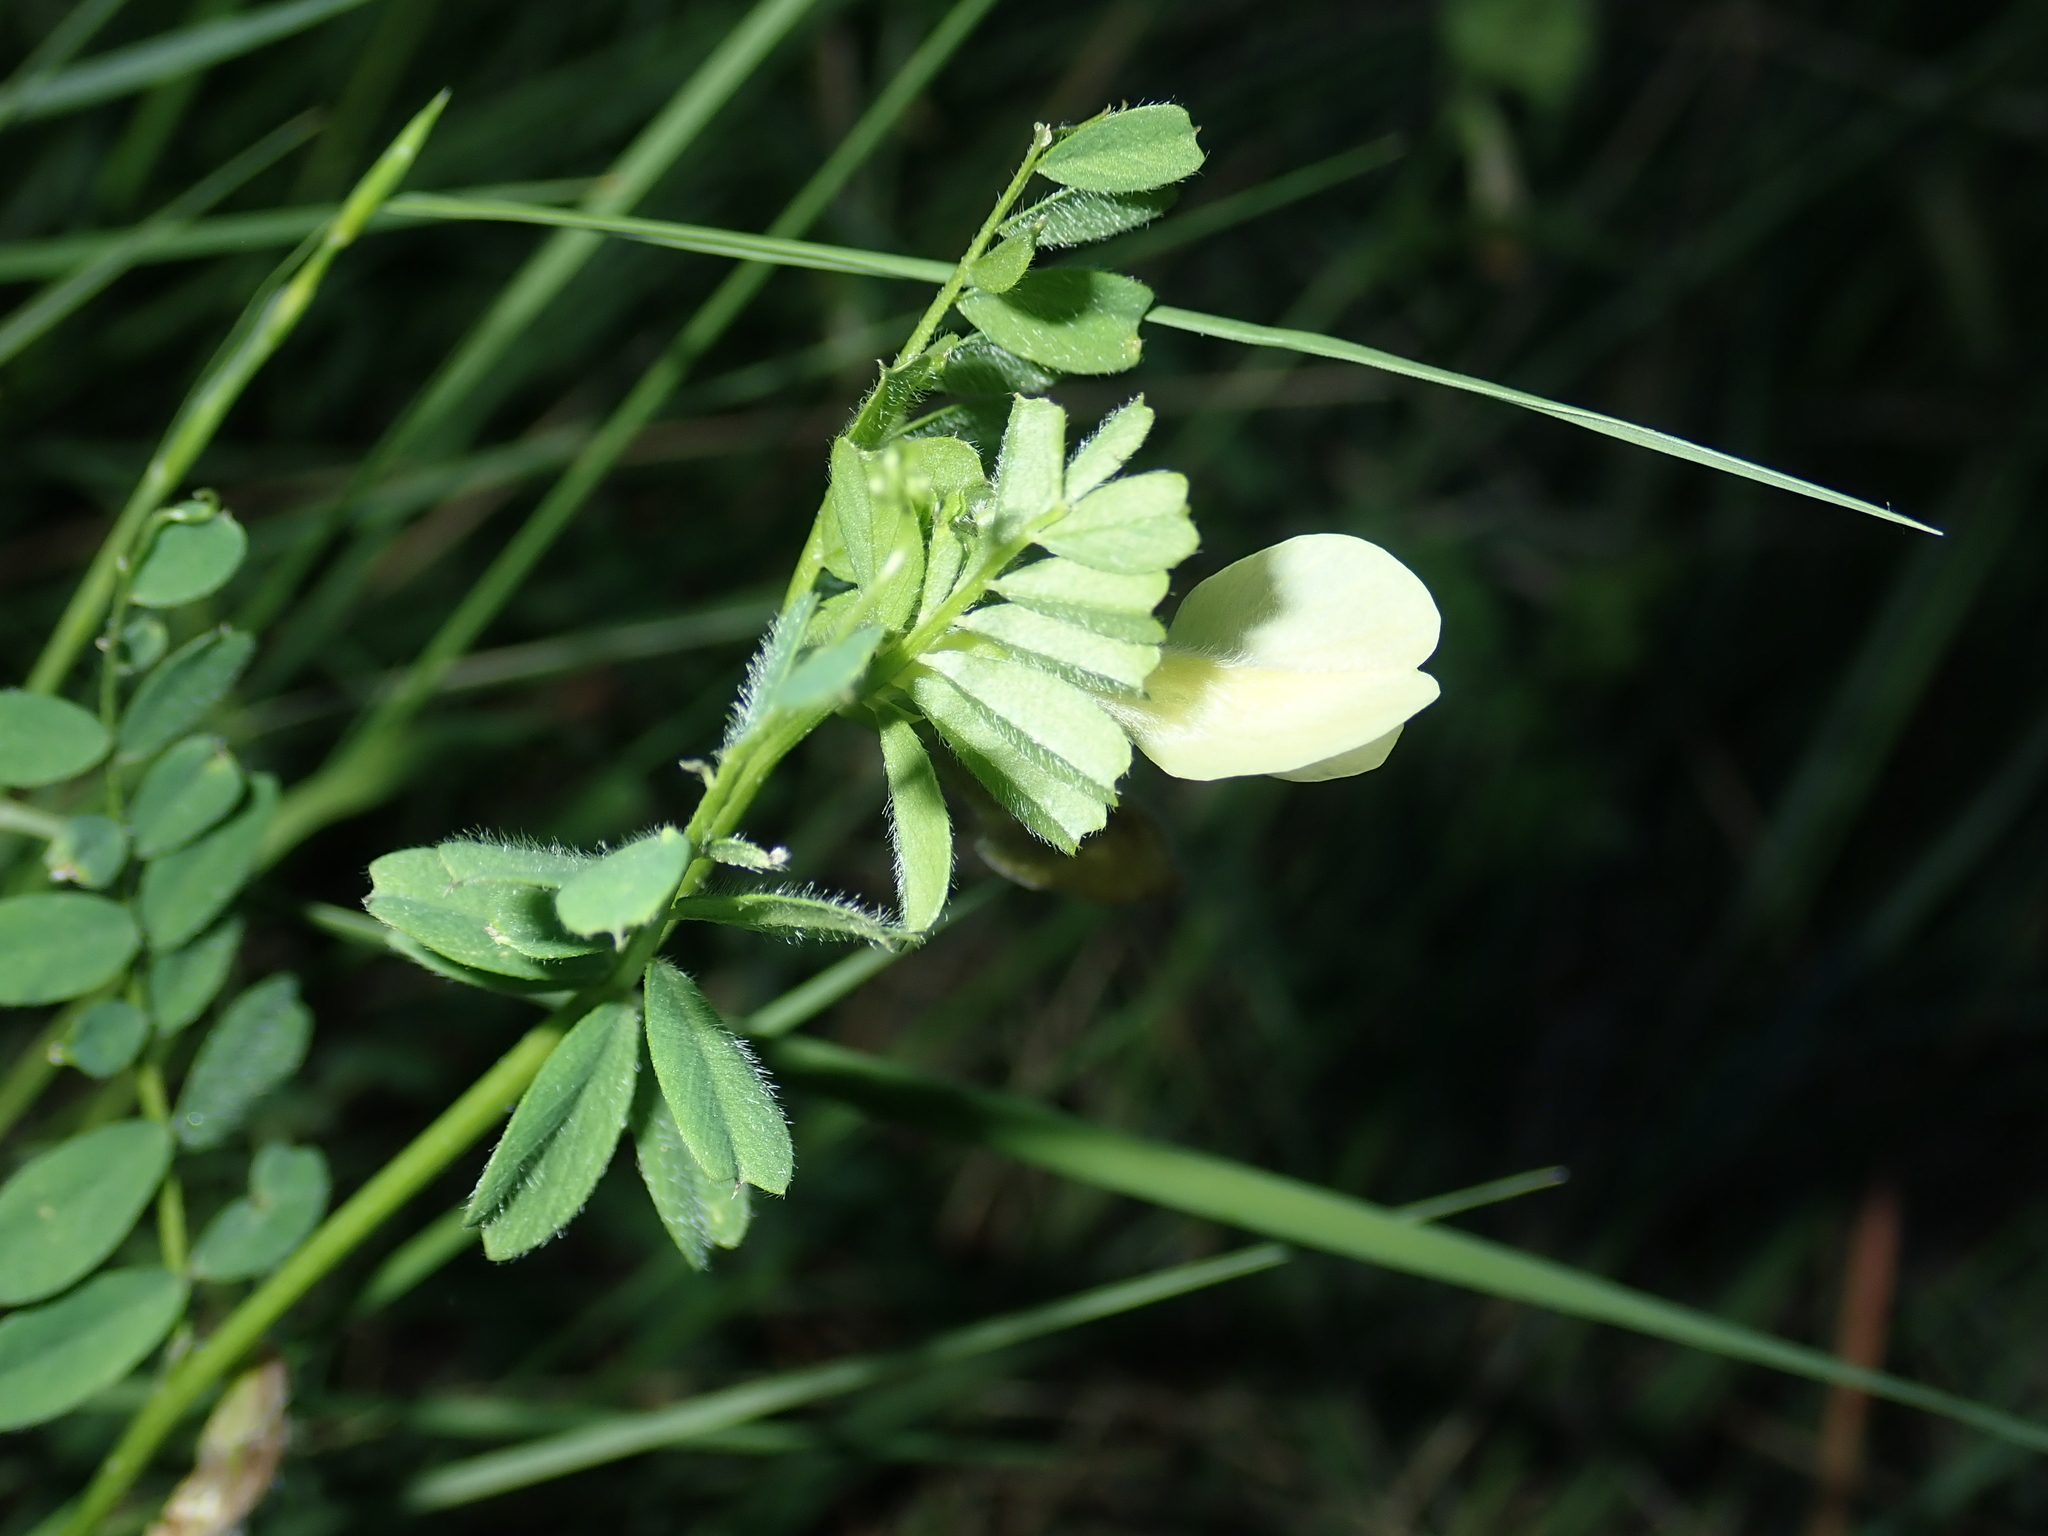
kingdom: Plantae
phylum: Tracheophyta
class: Magnoliopsida
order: Fabales
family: Fabaceae
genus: Vicia
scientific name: Vicia hybrida
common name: Hairy yellow vetch
